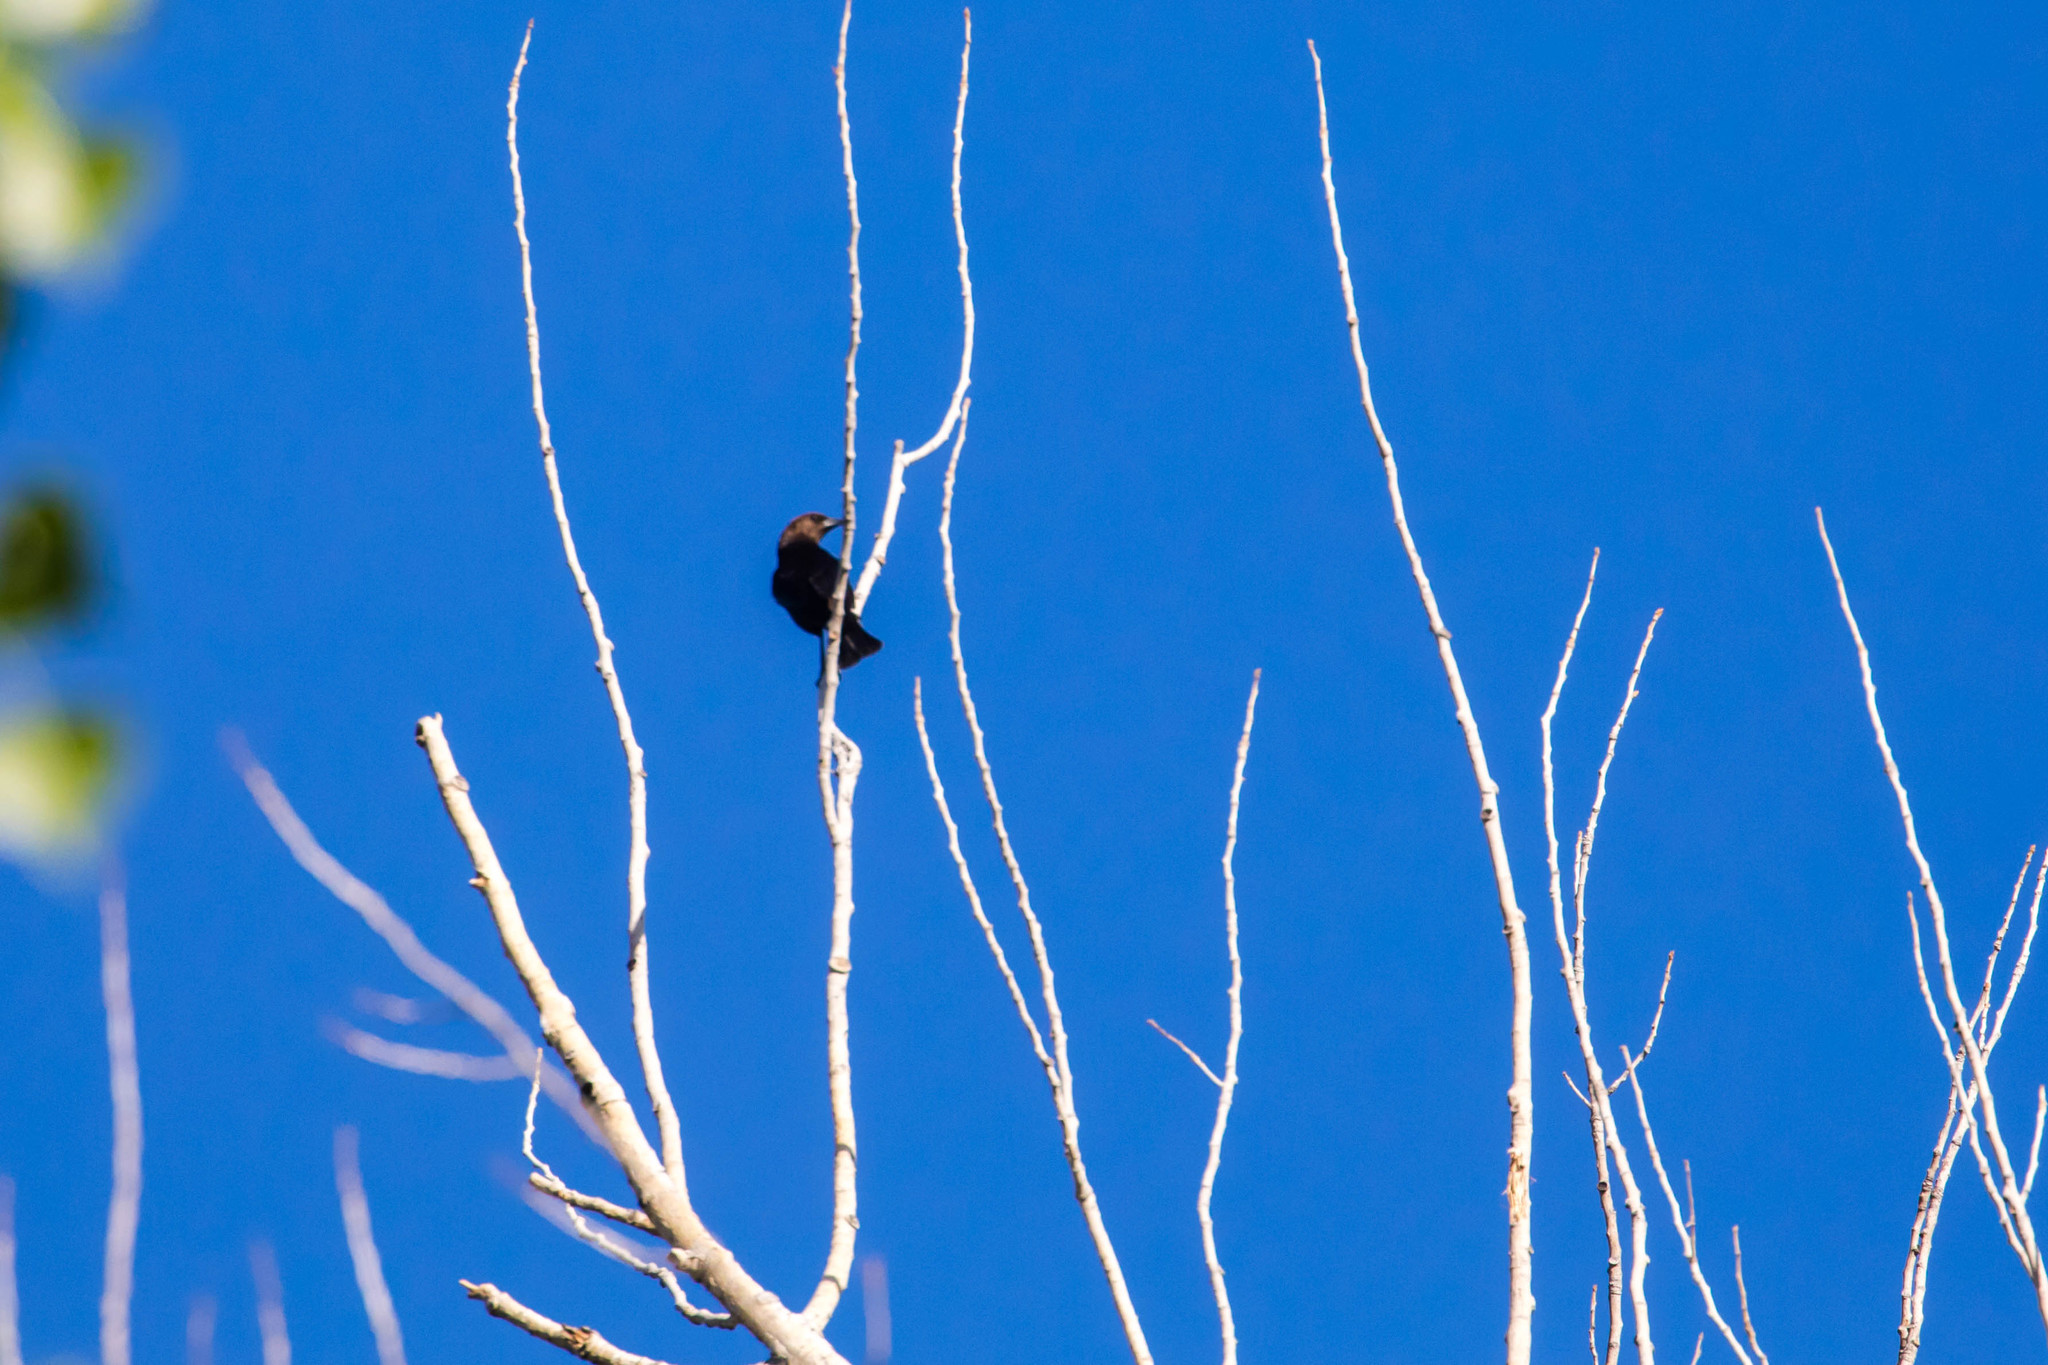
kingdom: Animalia
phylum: Chordata
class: Aves
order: Passeriformes
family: Icteridae
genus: Molothrus
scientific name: Molothrus ater
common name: Brown-headed cowbird
